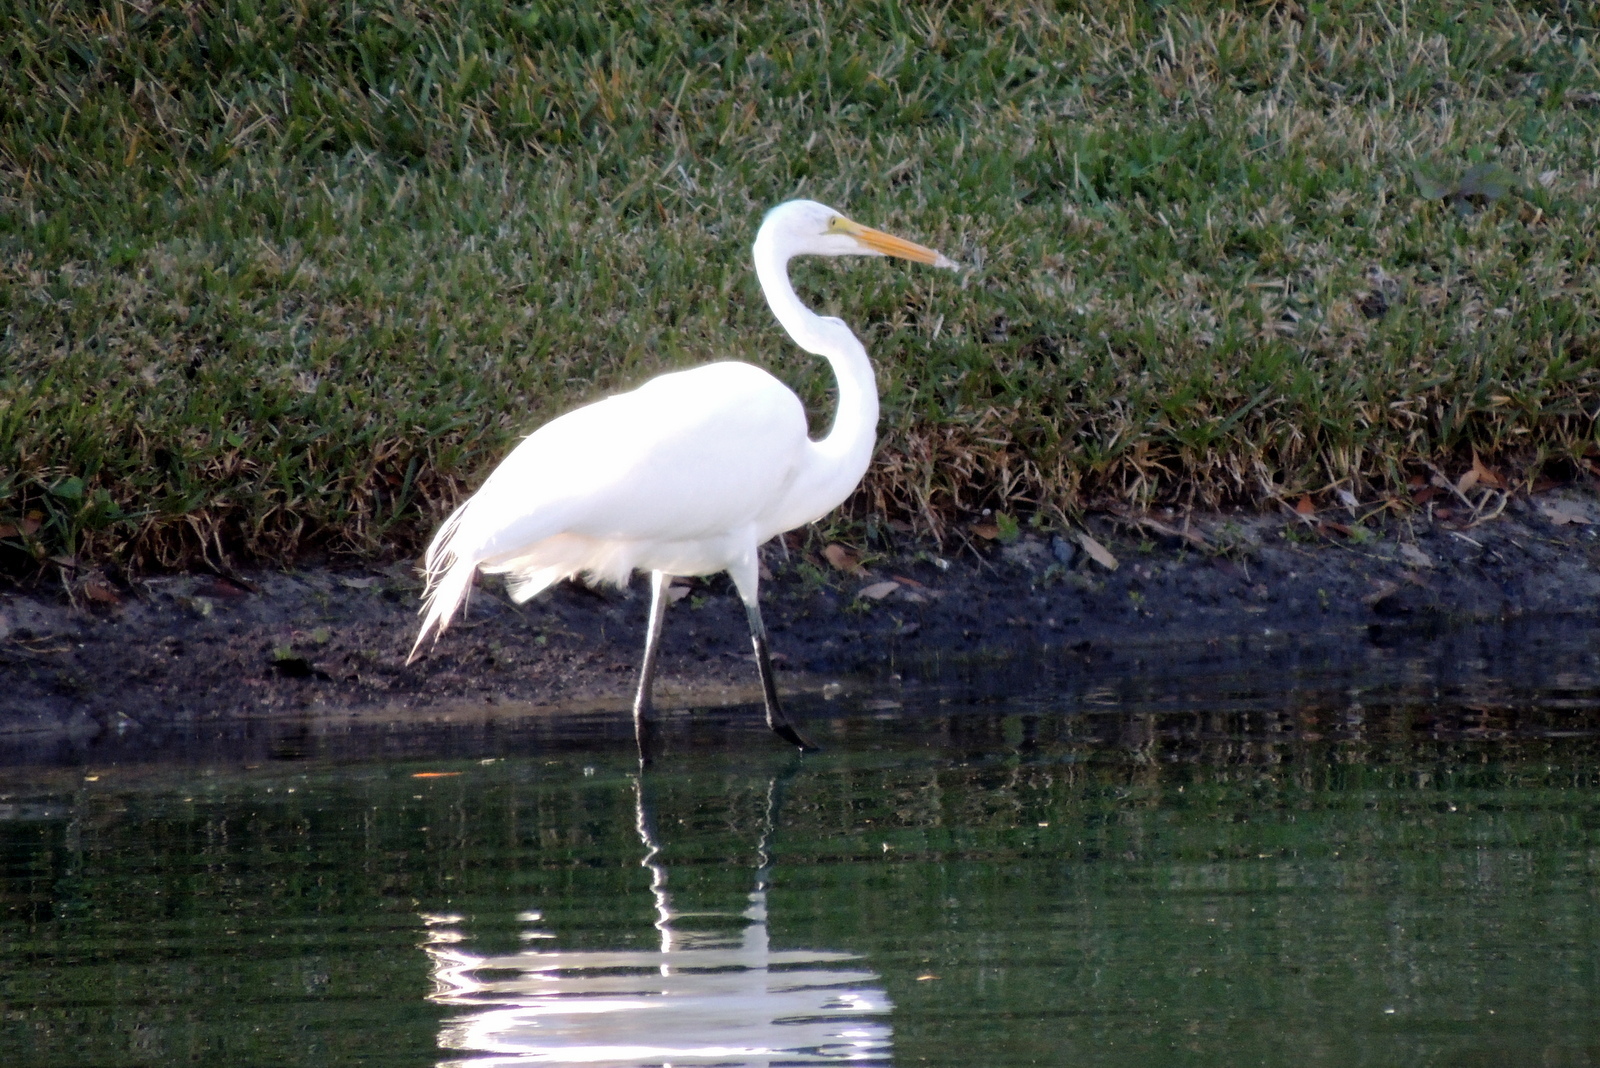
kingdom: Animalia
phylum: Chordata
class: Aves
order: Pelecaniformes
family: Ardeidae
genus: Ardea
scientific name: Ardea alba
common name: Great egret
